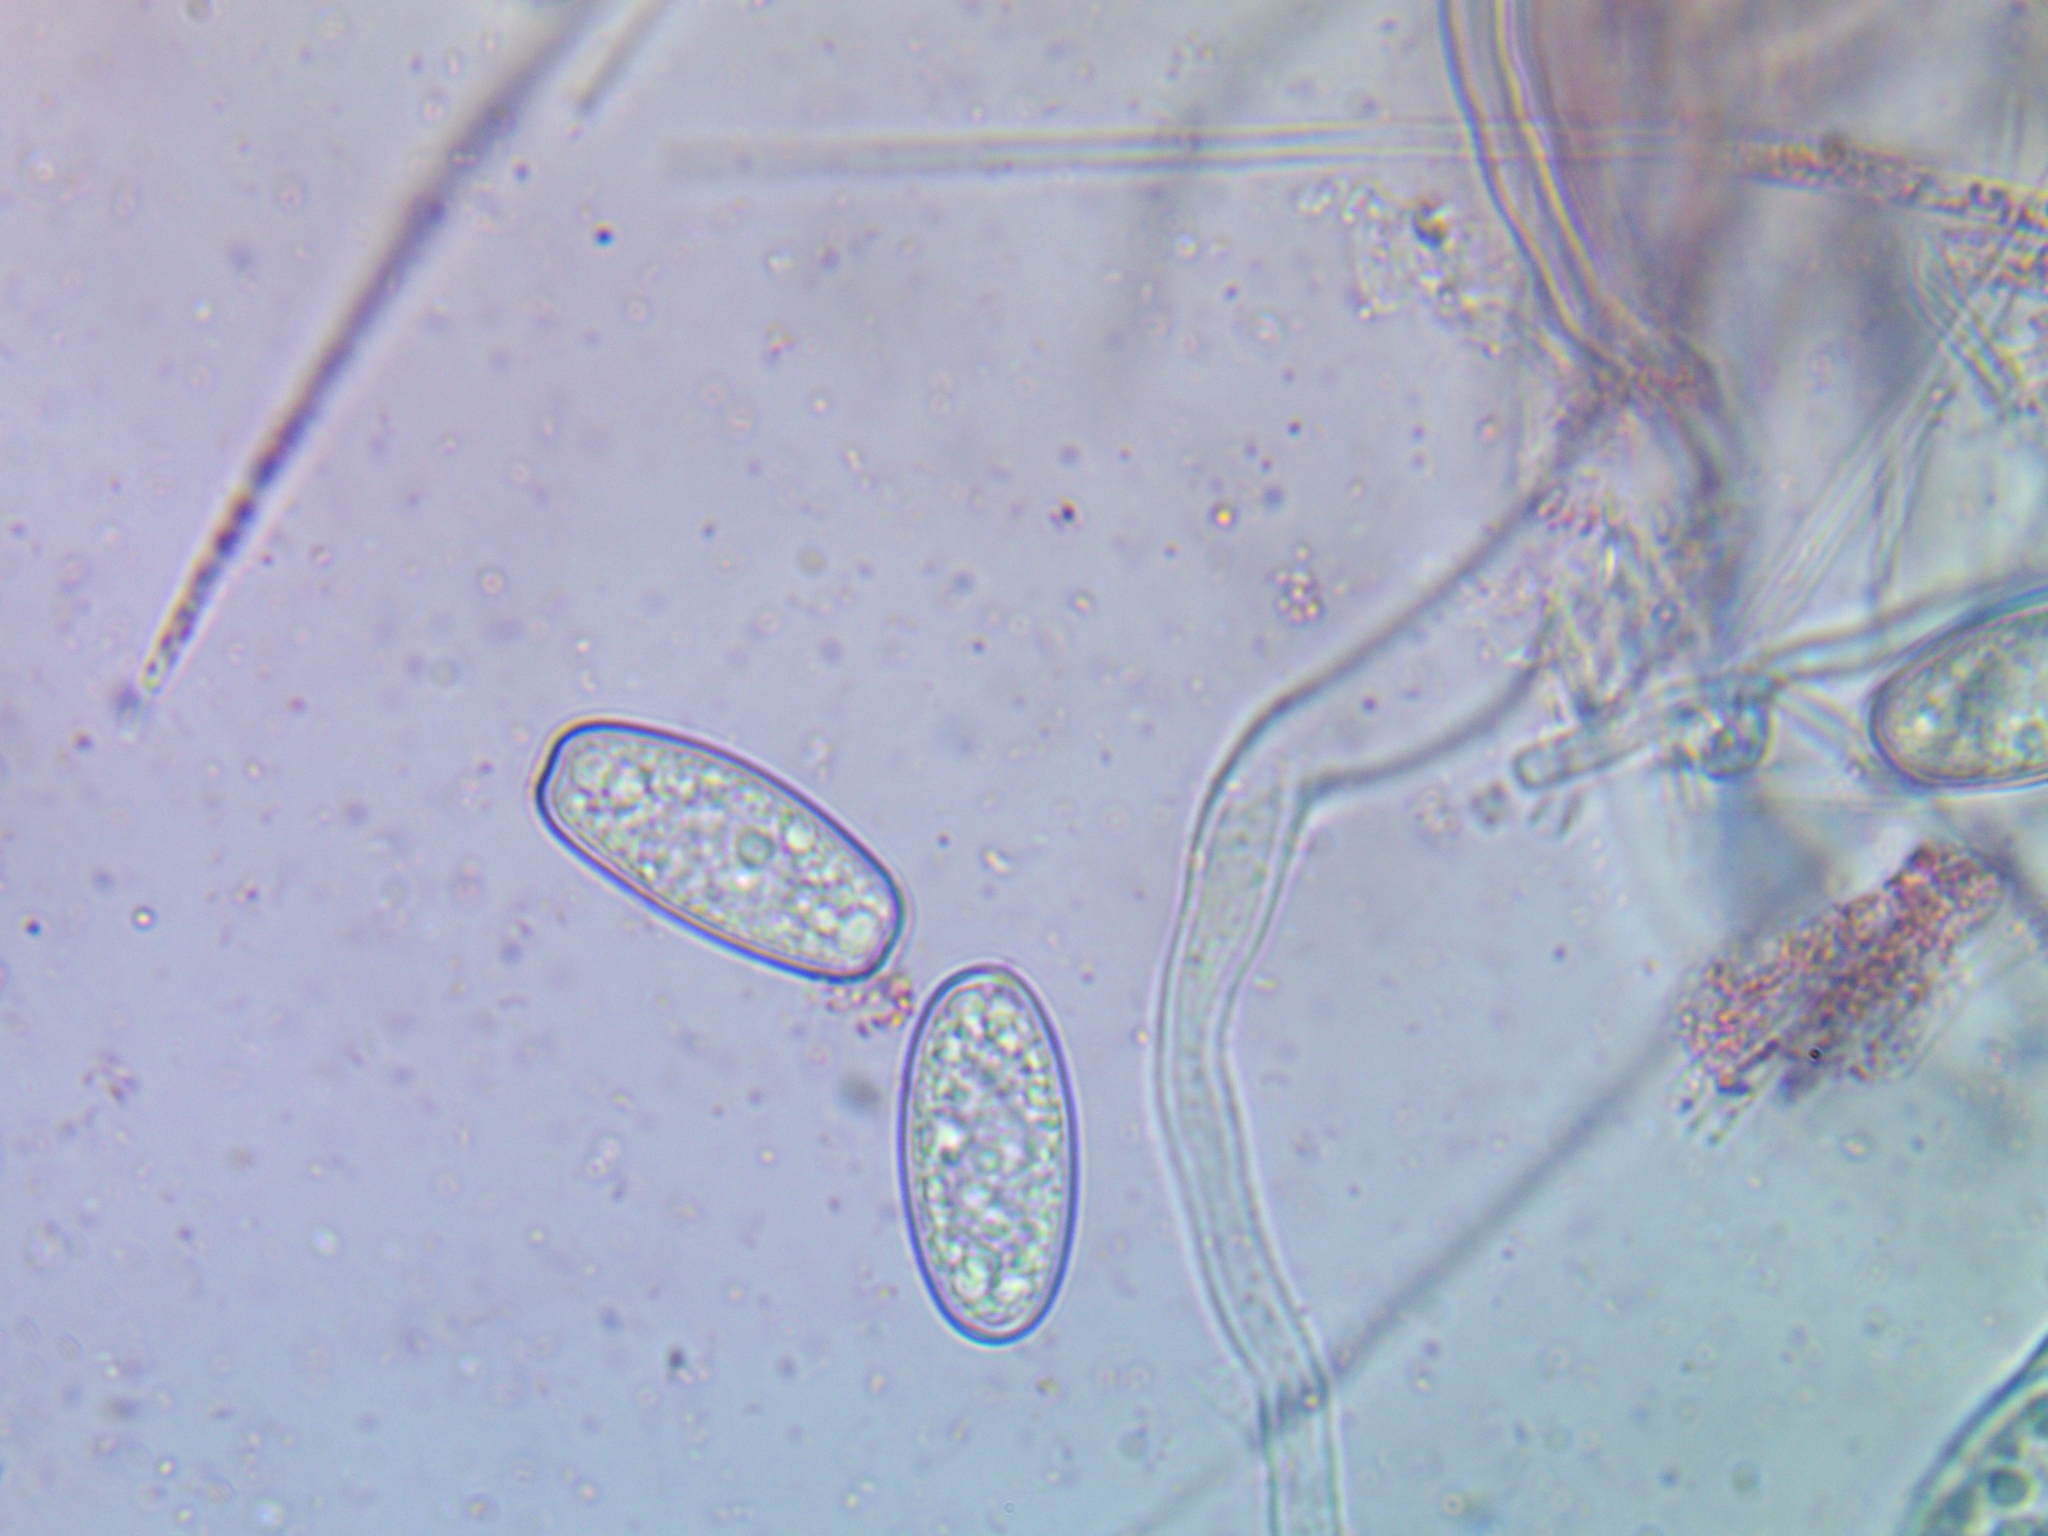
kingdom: Fungi
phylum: Ascomycota
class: Pezizomycetes
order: Pezizales
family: Sarcoscyphaceae
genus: Sarcoscypha
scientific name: Sarcoscypha austriaca
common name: Scarlet elfcup
